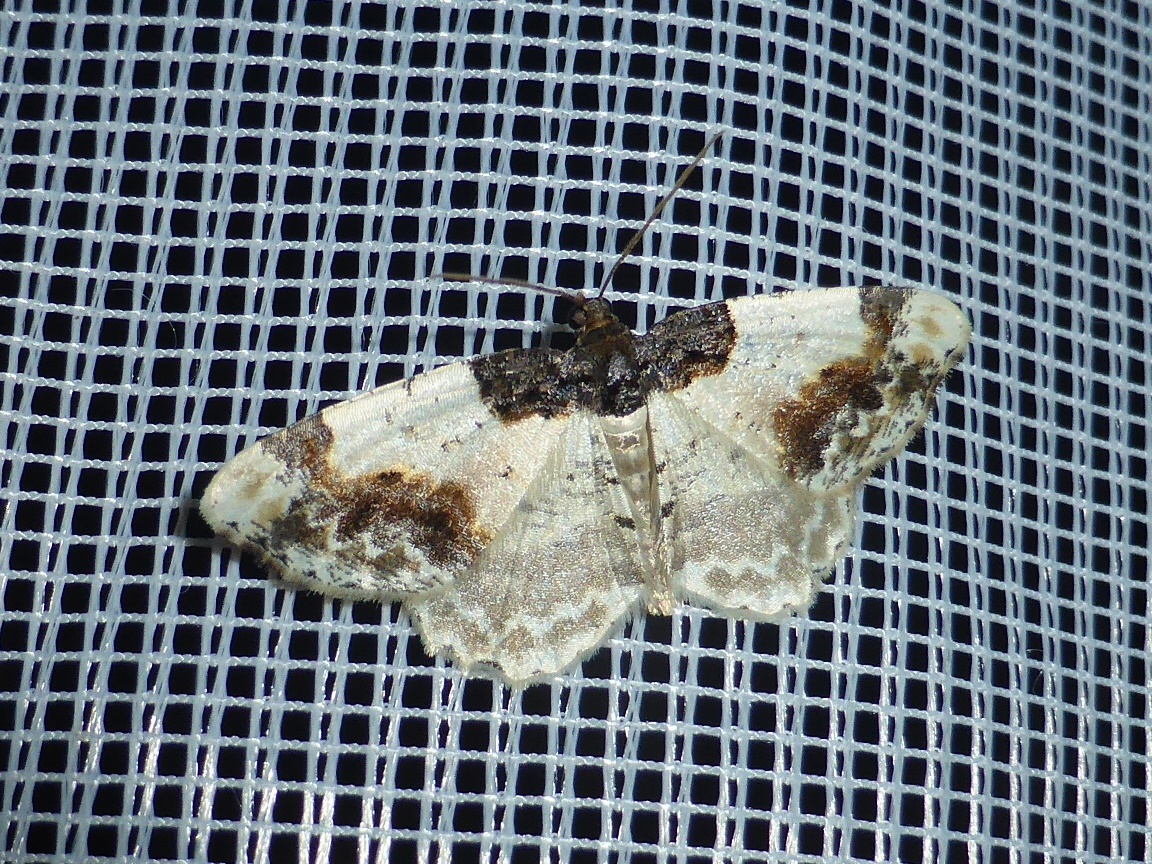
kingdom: Animalia
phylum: Arthropoda
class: Insecta
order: Lepidoptera
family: Geometridae
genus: Ligdia
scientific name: Ligdia adustata
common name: Scorched carpet
